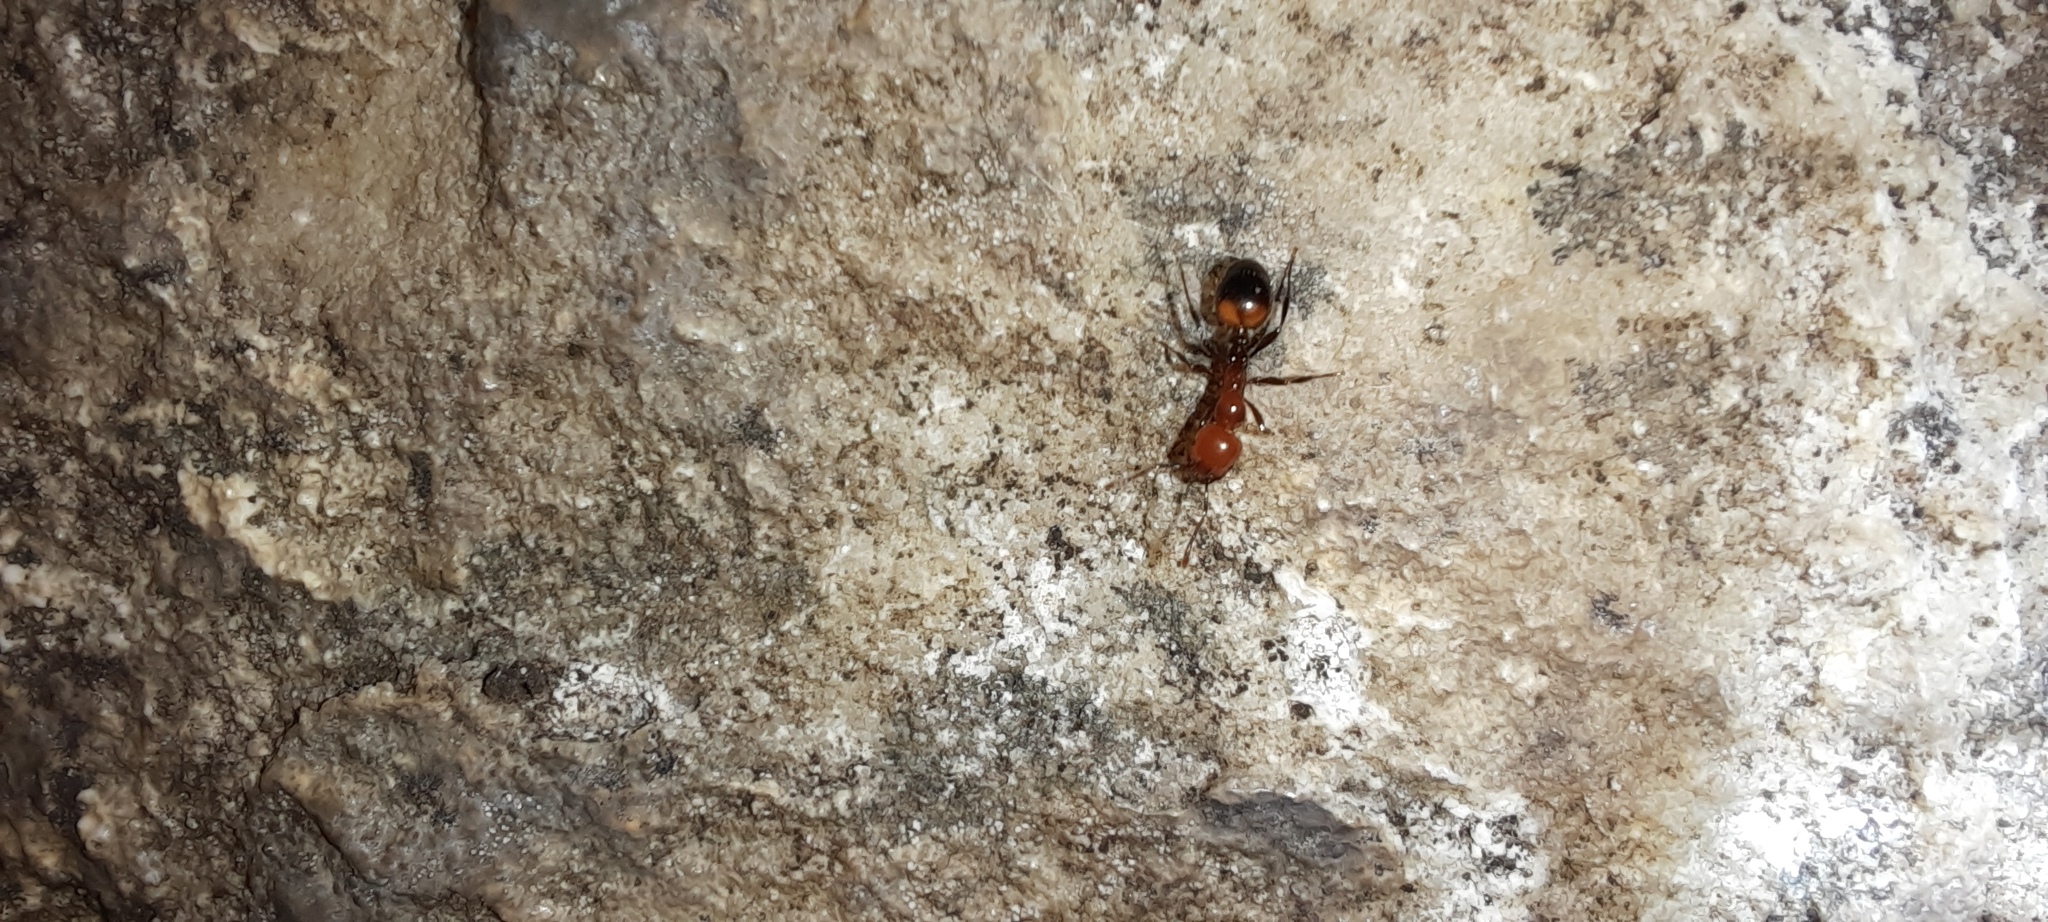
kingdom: Animalia
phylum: Arthropoda
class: Insecta
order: Hymenoptera
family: Formicidae
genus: Chelaner
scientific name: Chelaner
